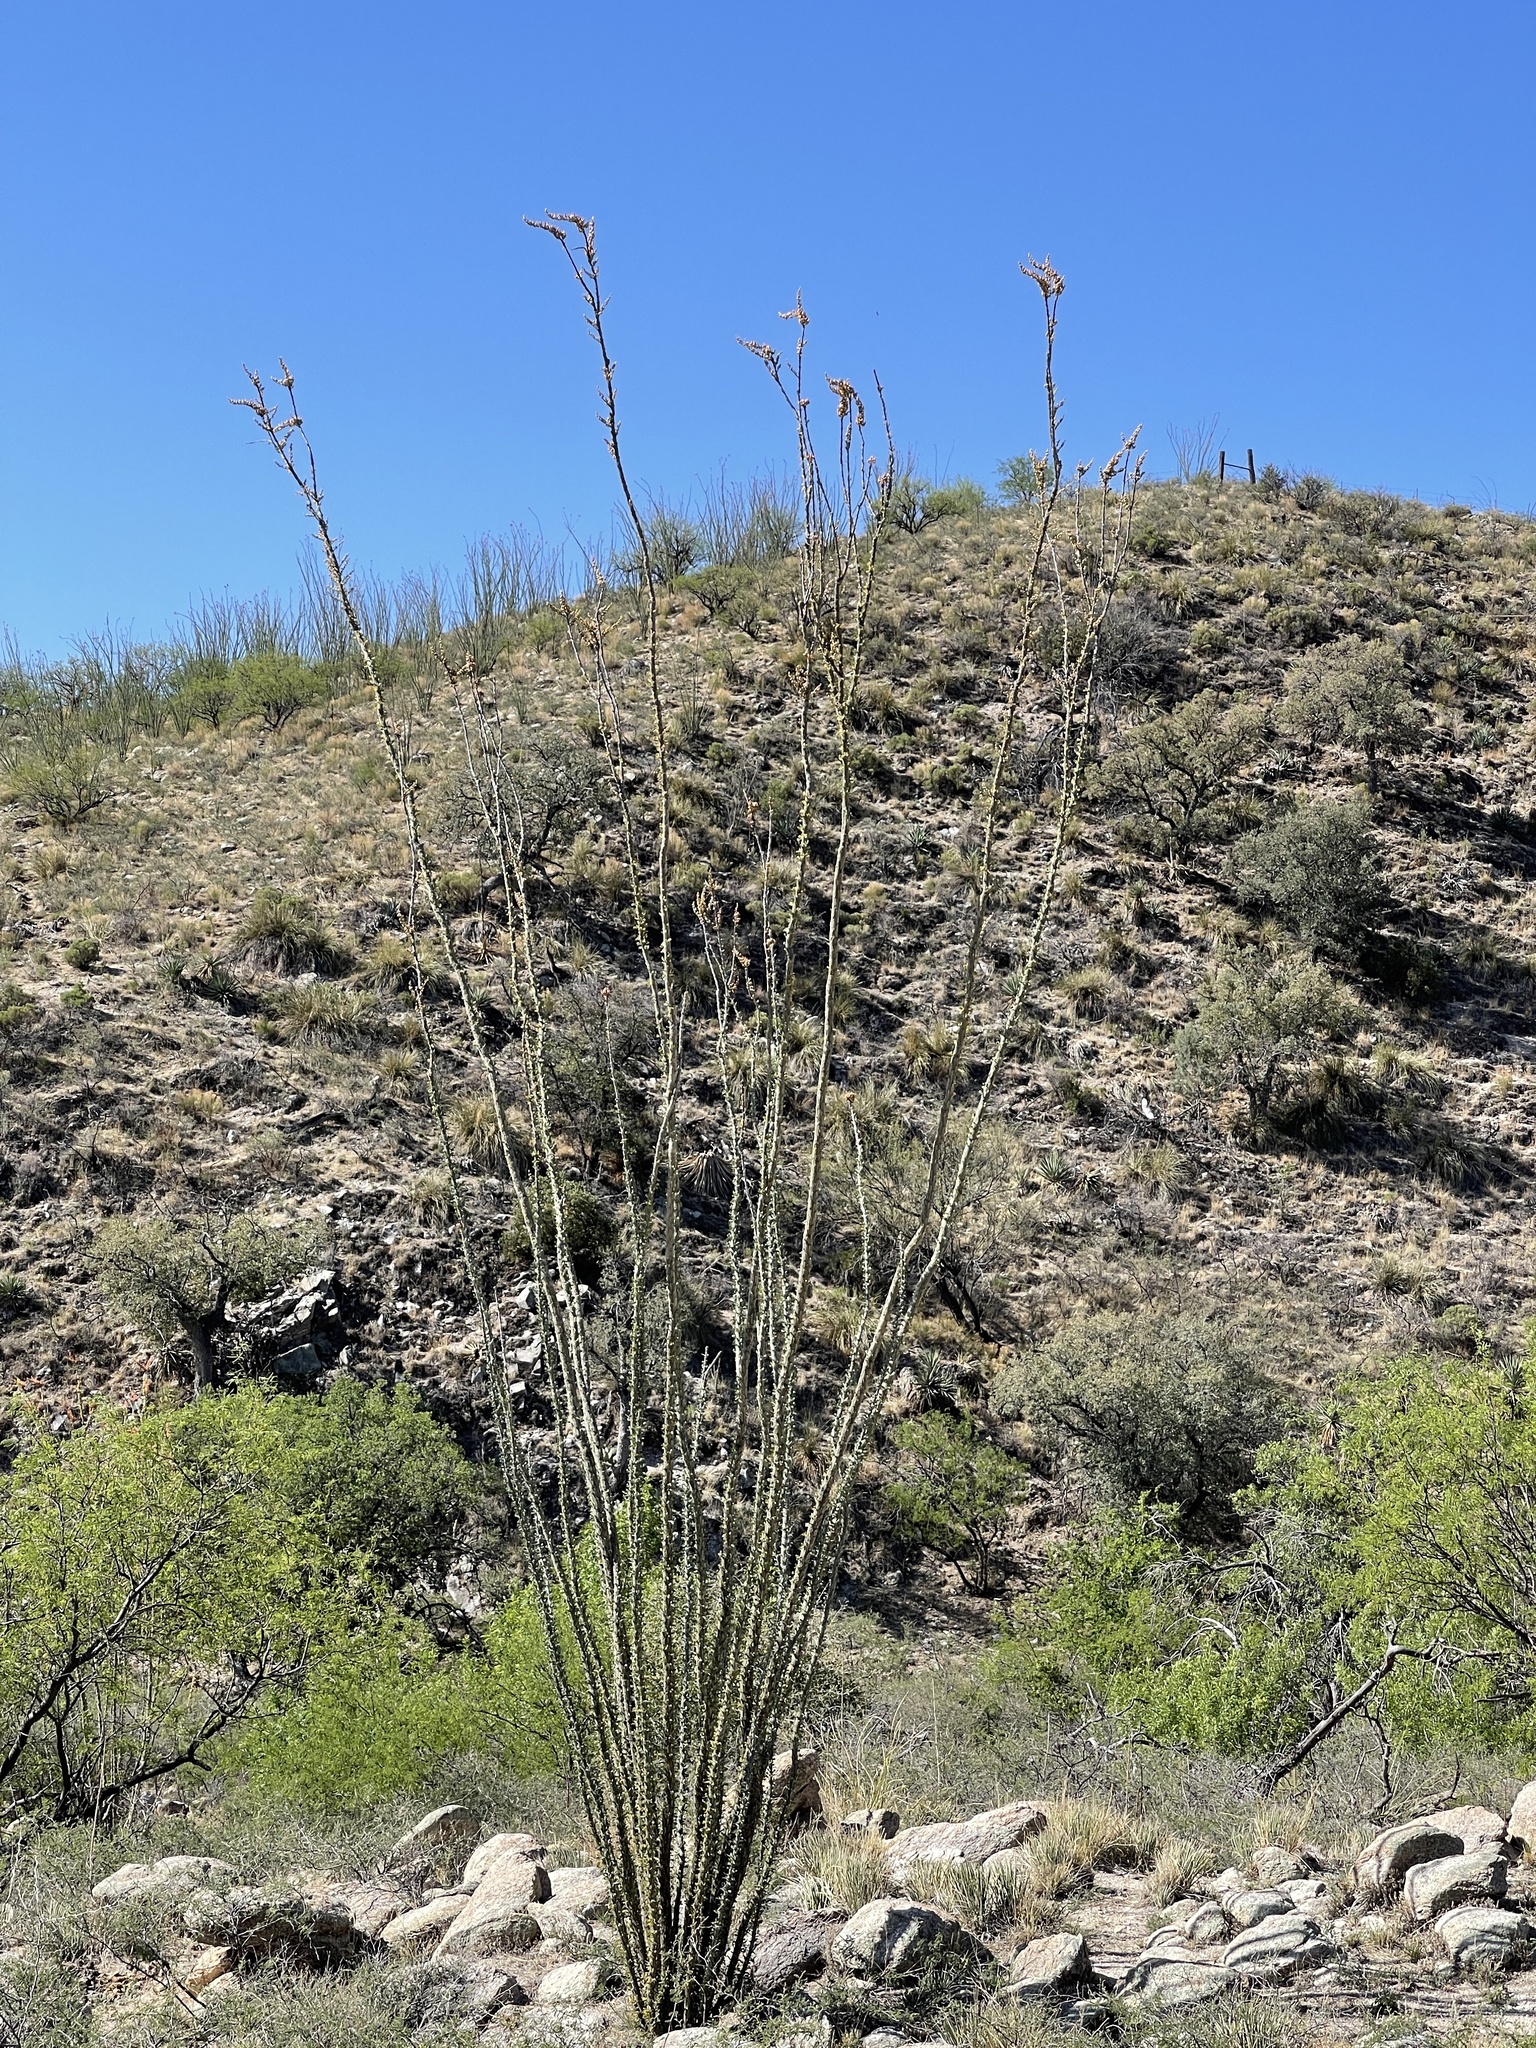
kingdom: Plantae
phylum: Tracheophyta
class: Magnoliopsida
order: Ericales
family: Fouquieriaceae
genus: Fouquieria
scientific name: Fouquieria splendens
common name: Vine-cactus
